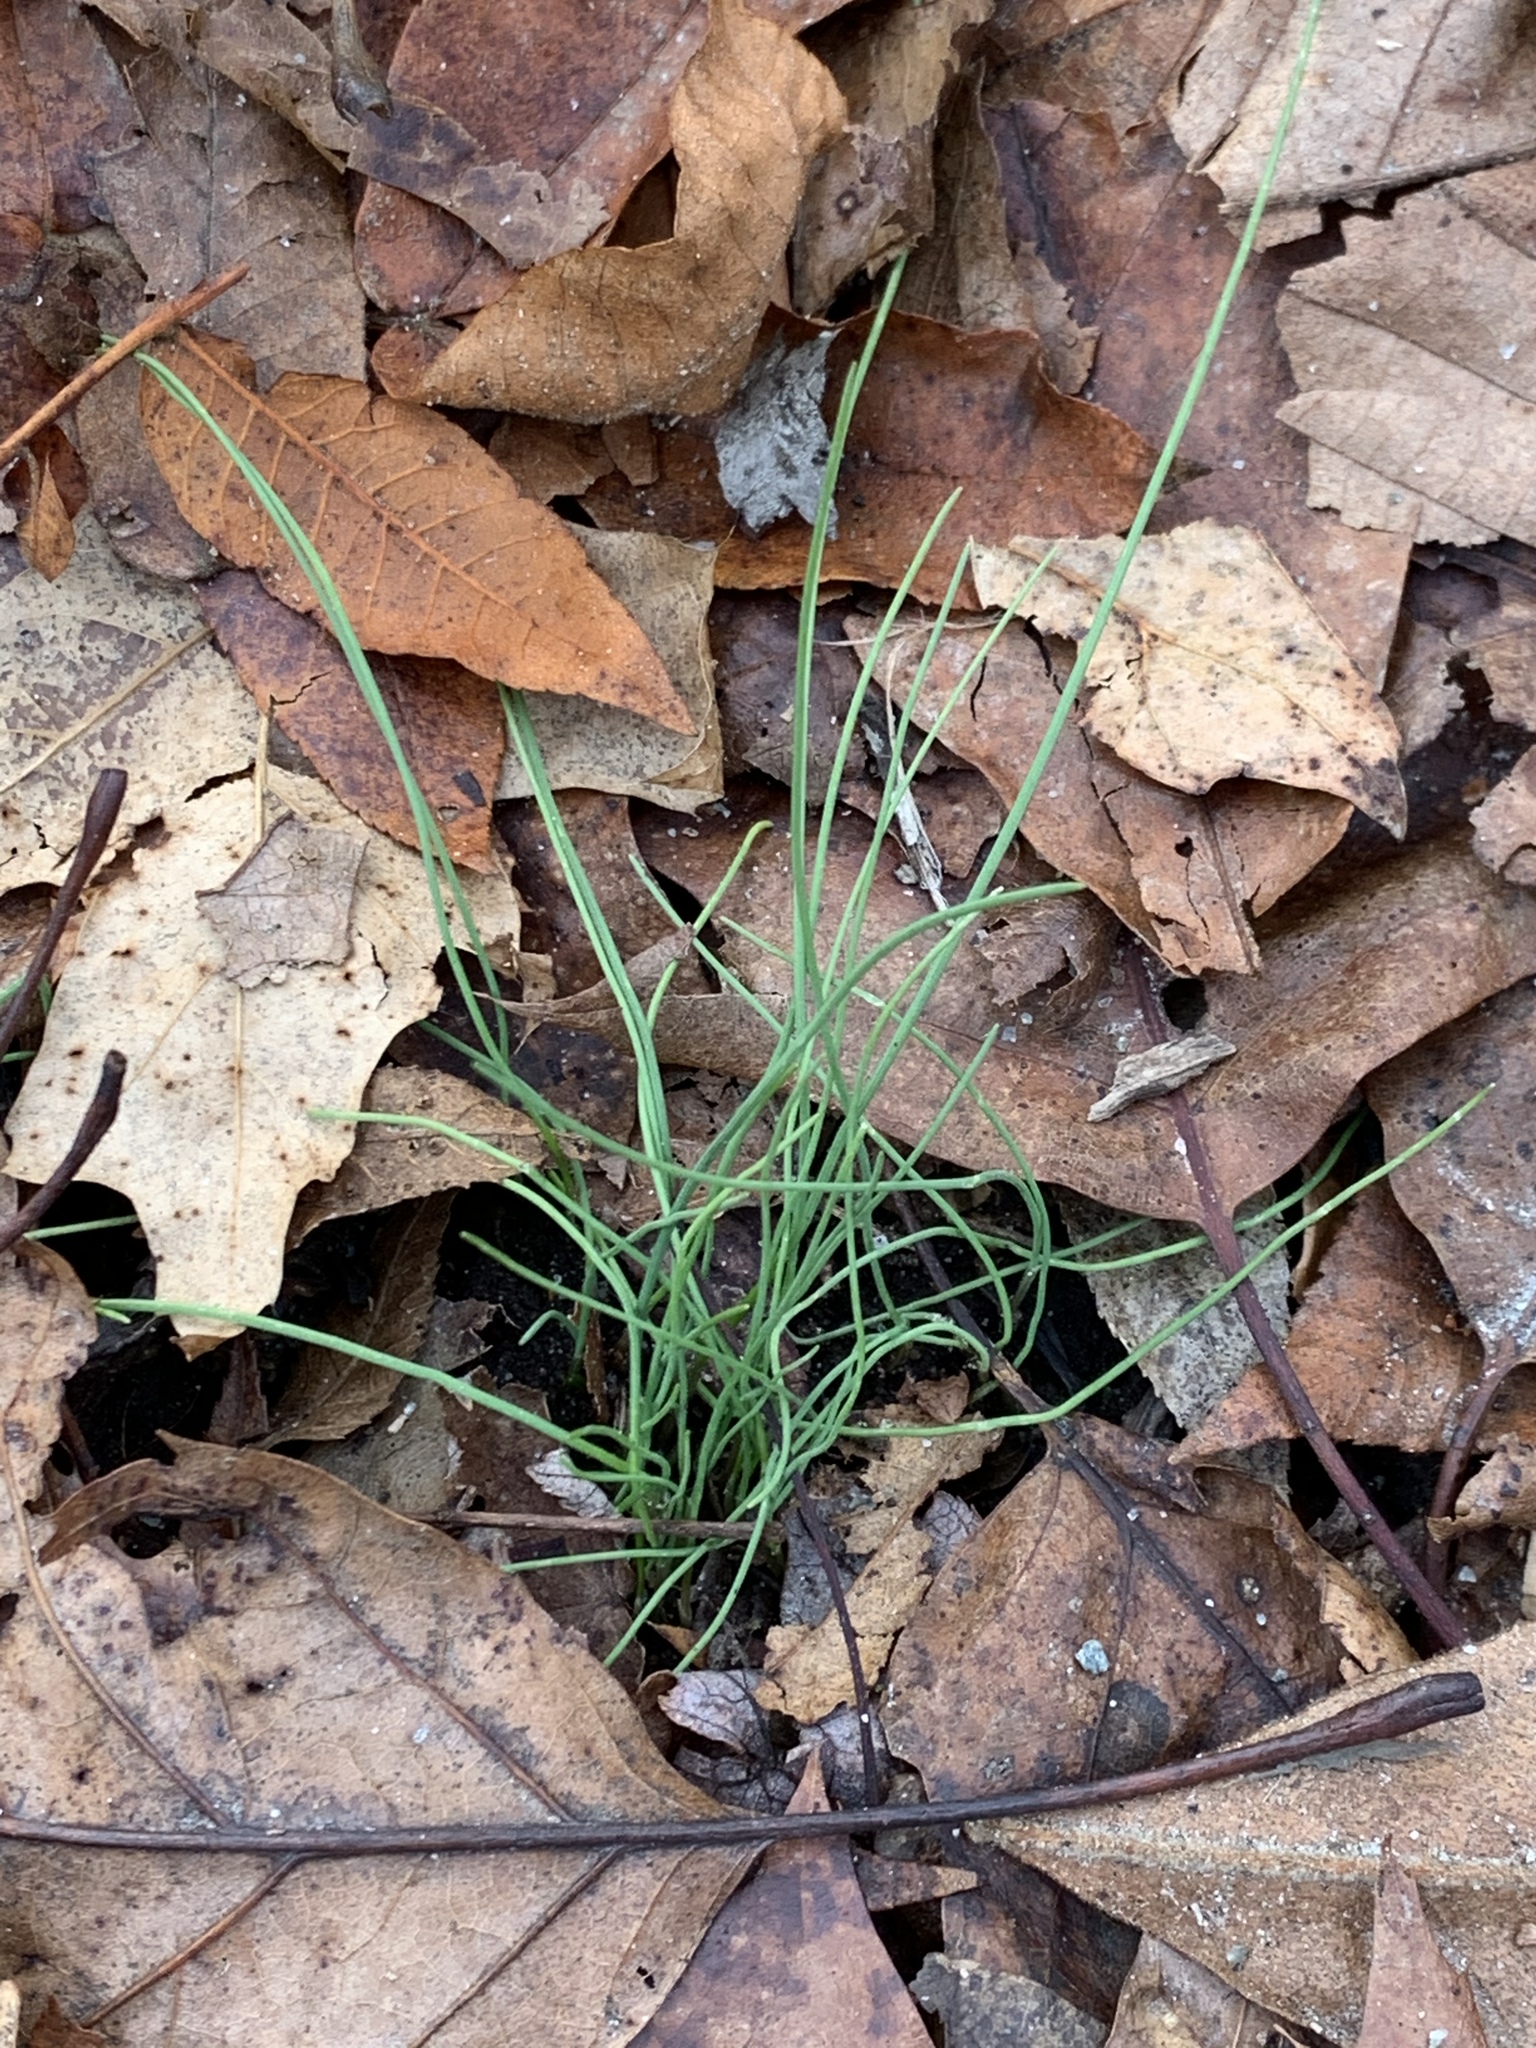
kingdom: Plantae
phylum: Tracheophyta
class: Liliopsida
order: Asparagales
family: Amaryllidaceae
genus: Allium
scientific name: Allium vineale
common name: Crow garlic
